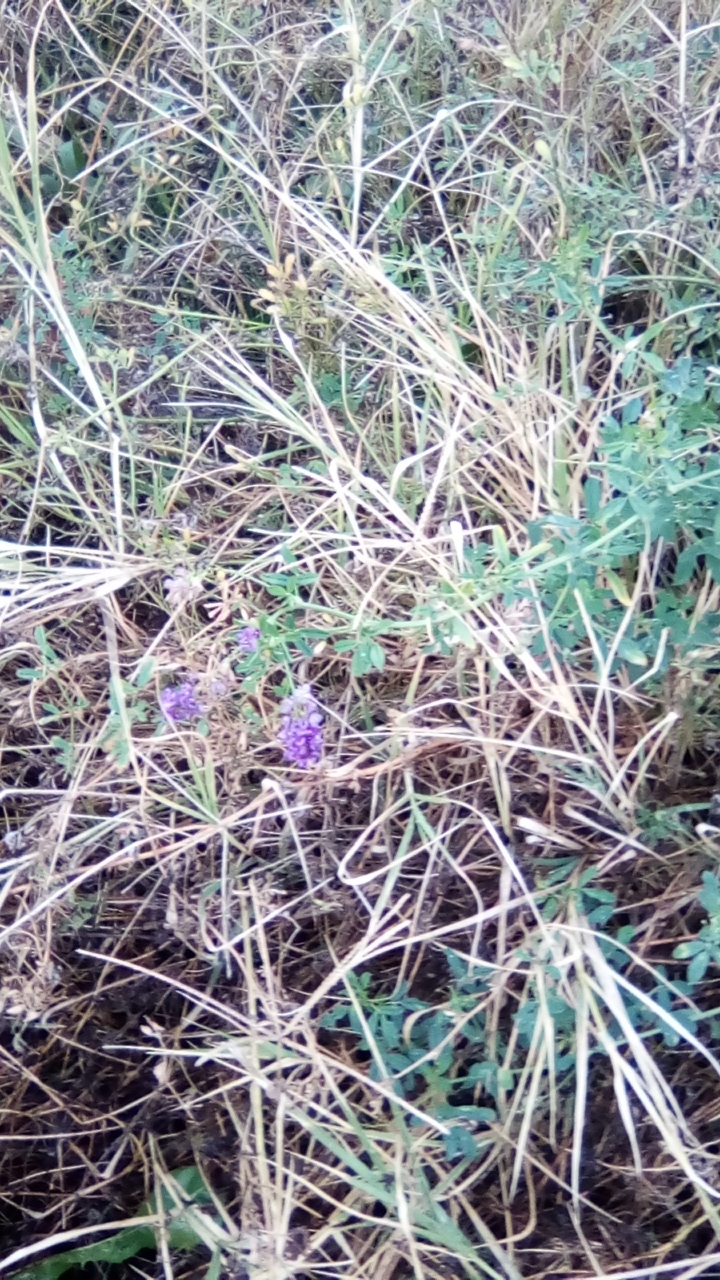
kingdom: Plantae
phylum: Tracheophyta
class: Magnoliopsida
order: Fabales
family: Fabaceae
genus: Medicago
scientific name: Medicago sativa
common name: Alfalfa
